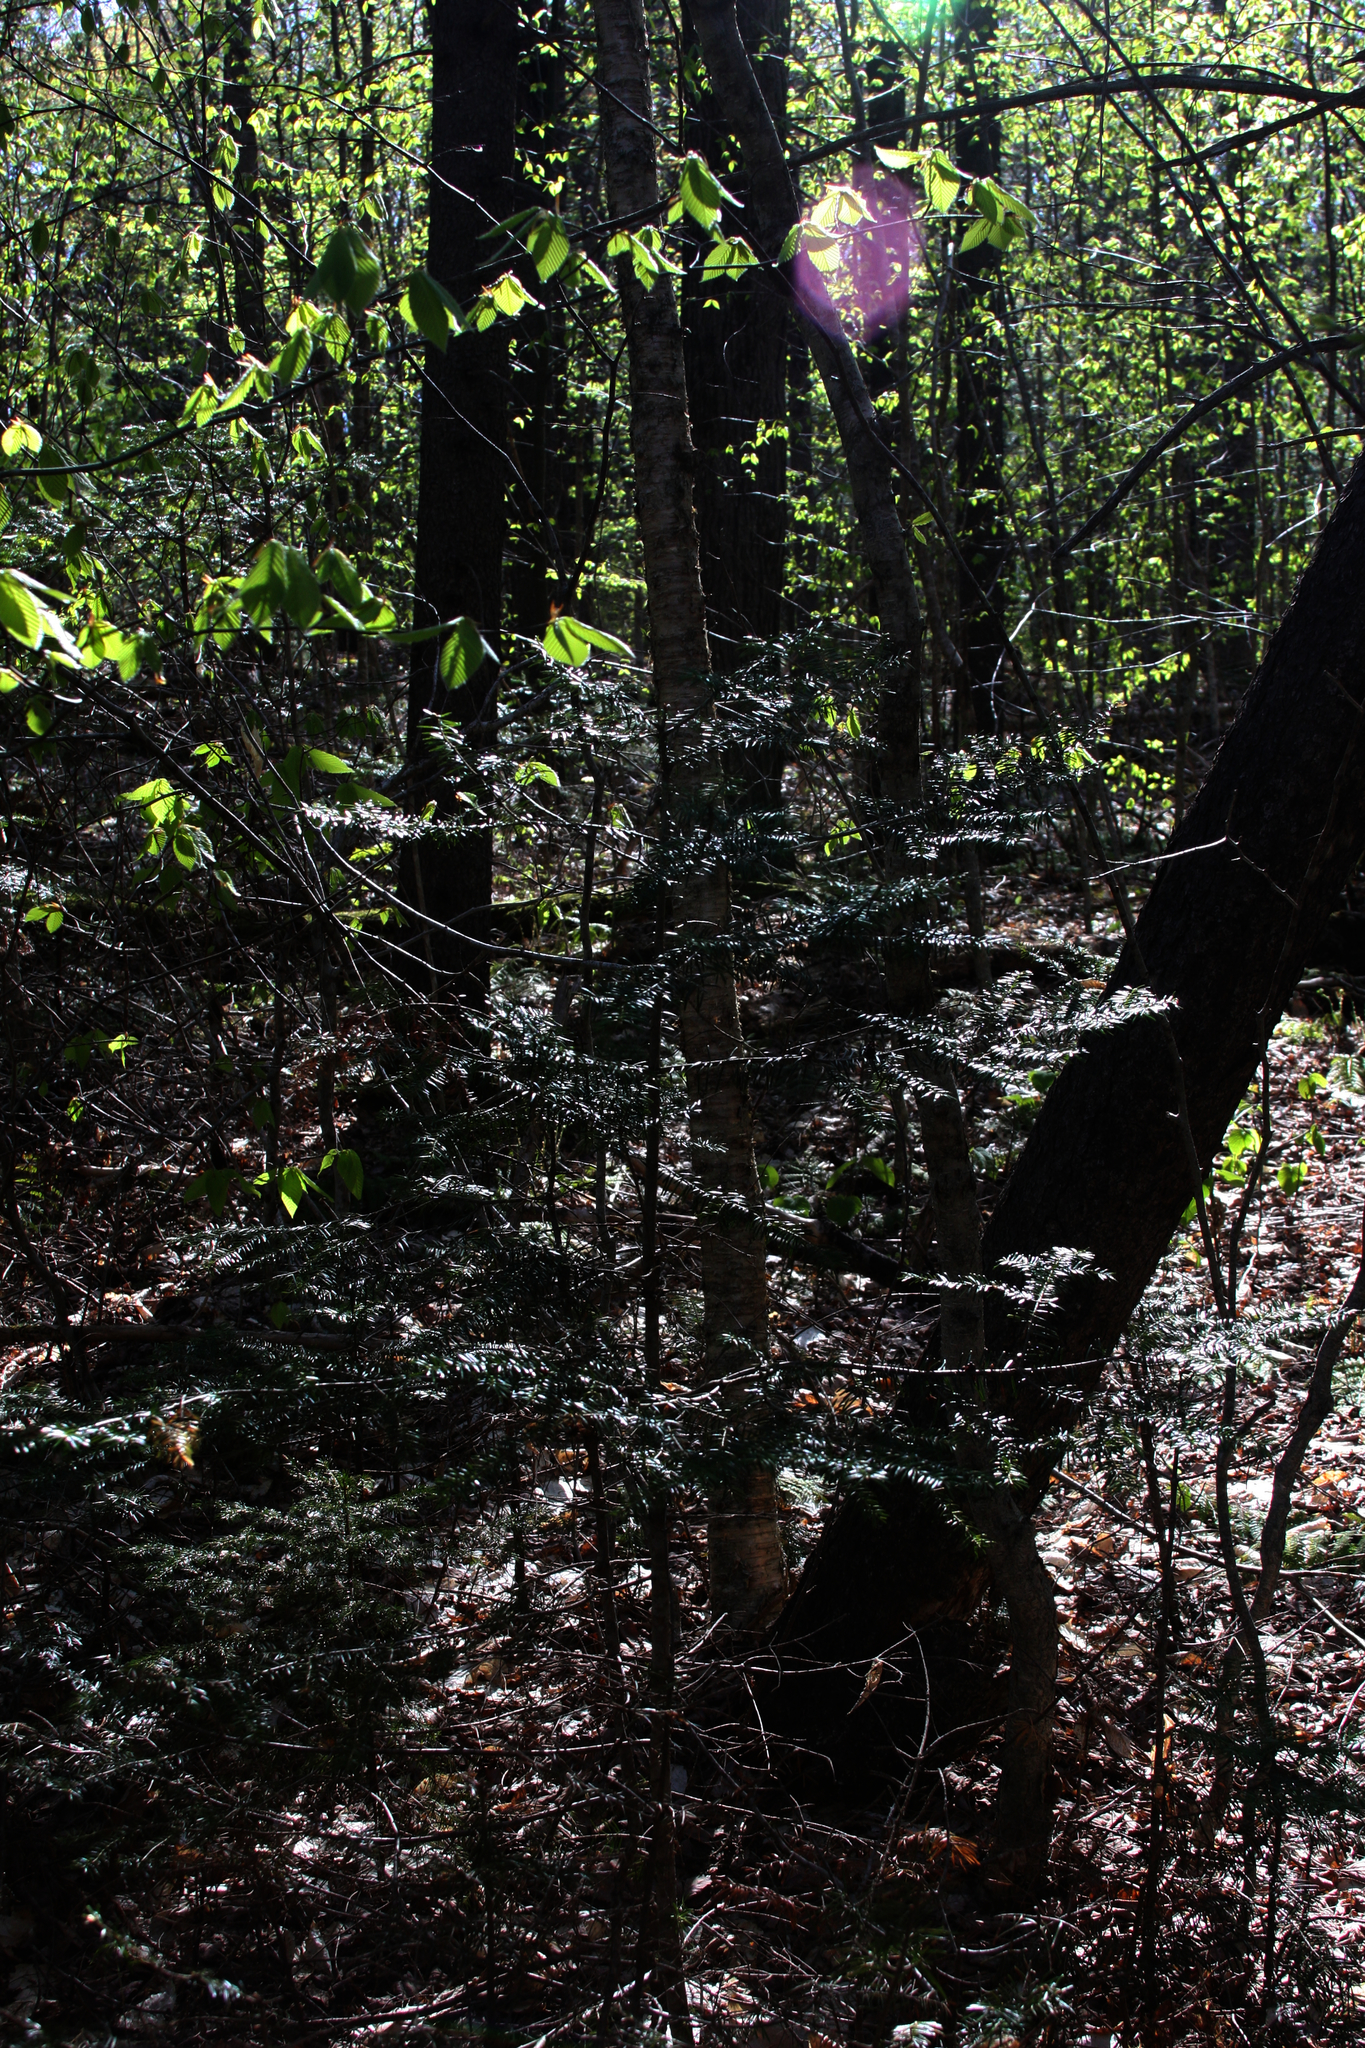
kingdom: Plantae
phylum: Tracheophyta
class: Pinopsida
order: Pinales
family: Pinaceae
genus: Abies
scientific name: Abies balsamea
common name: Balsam fir
